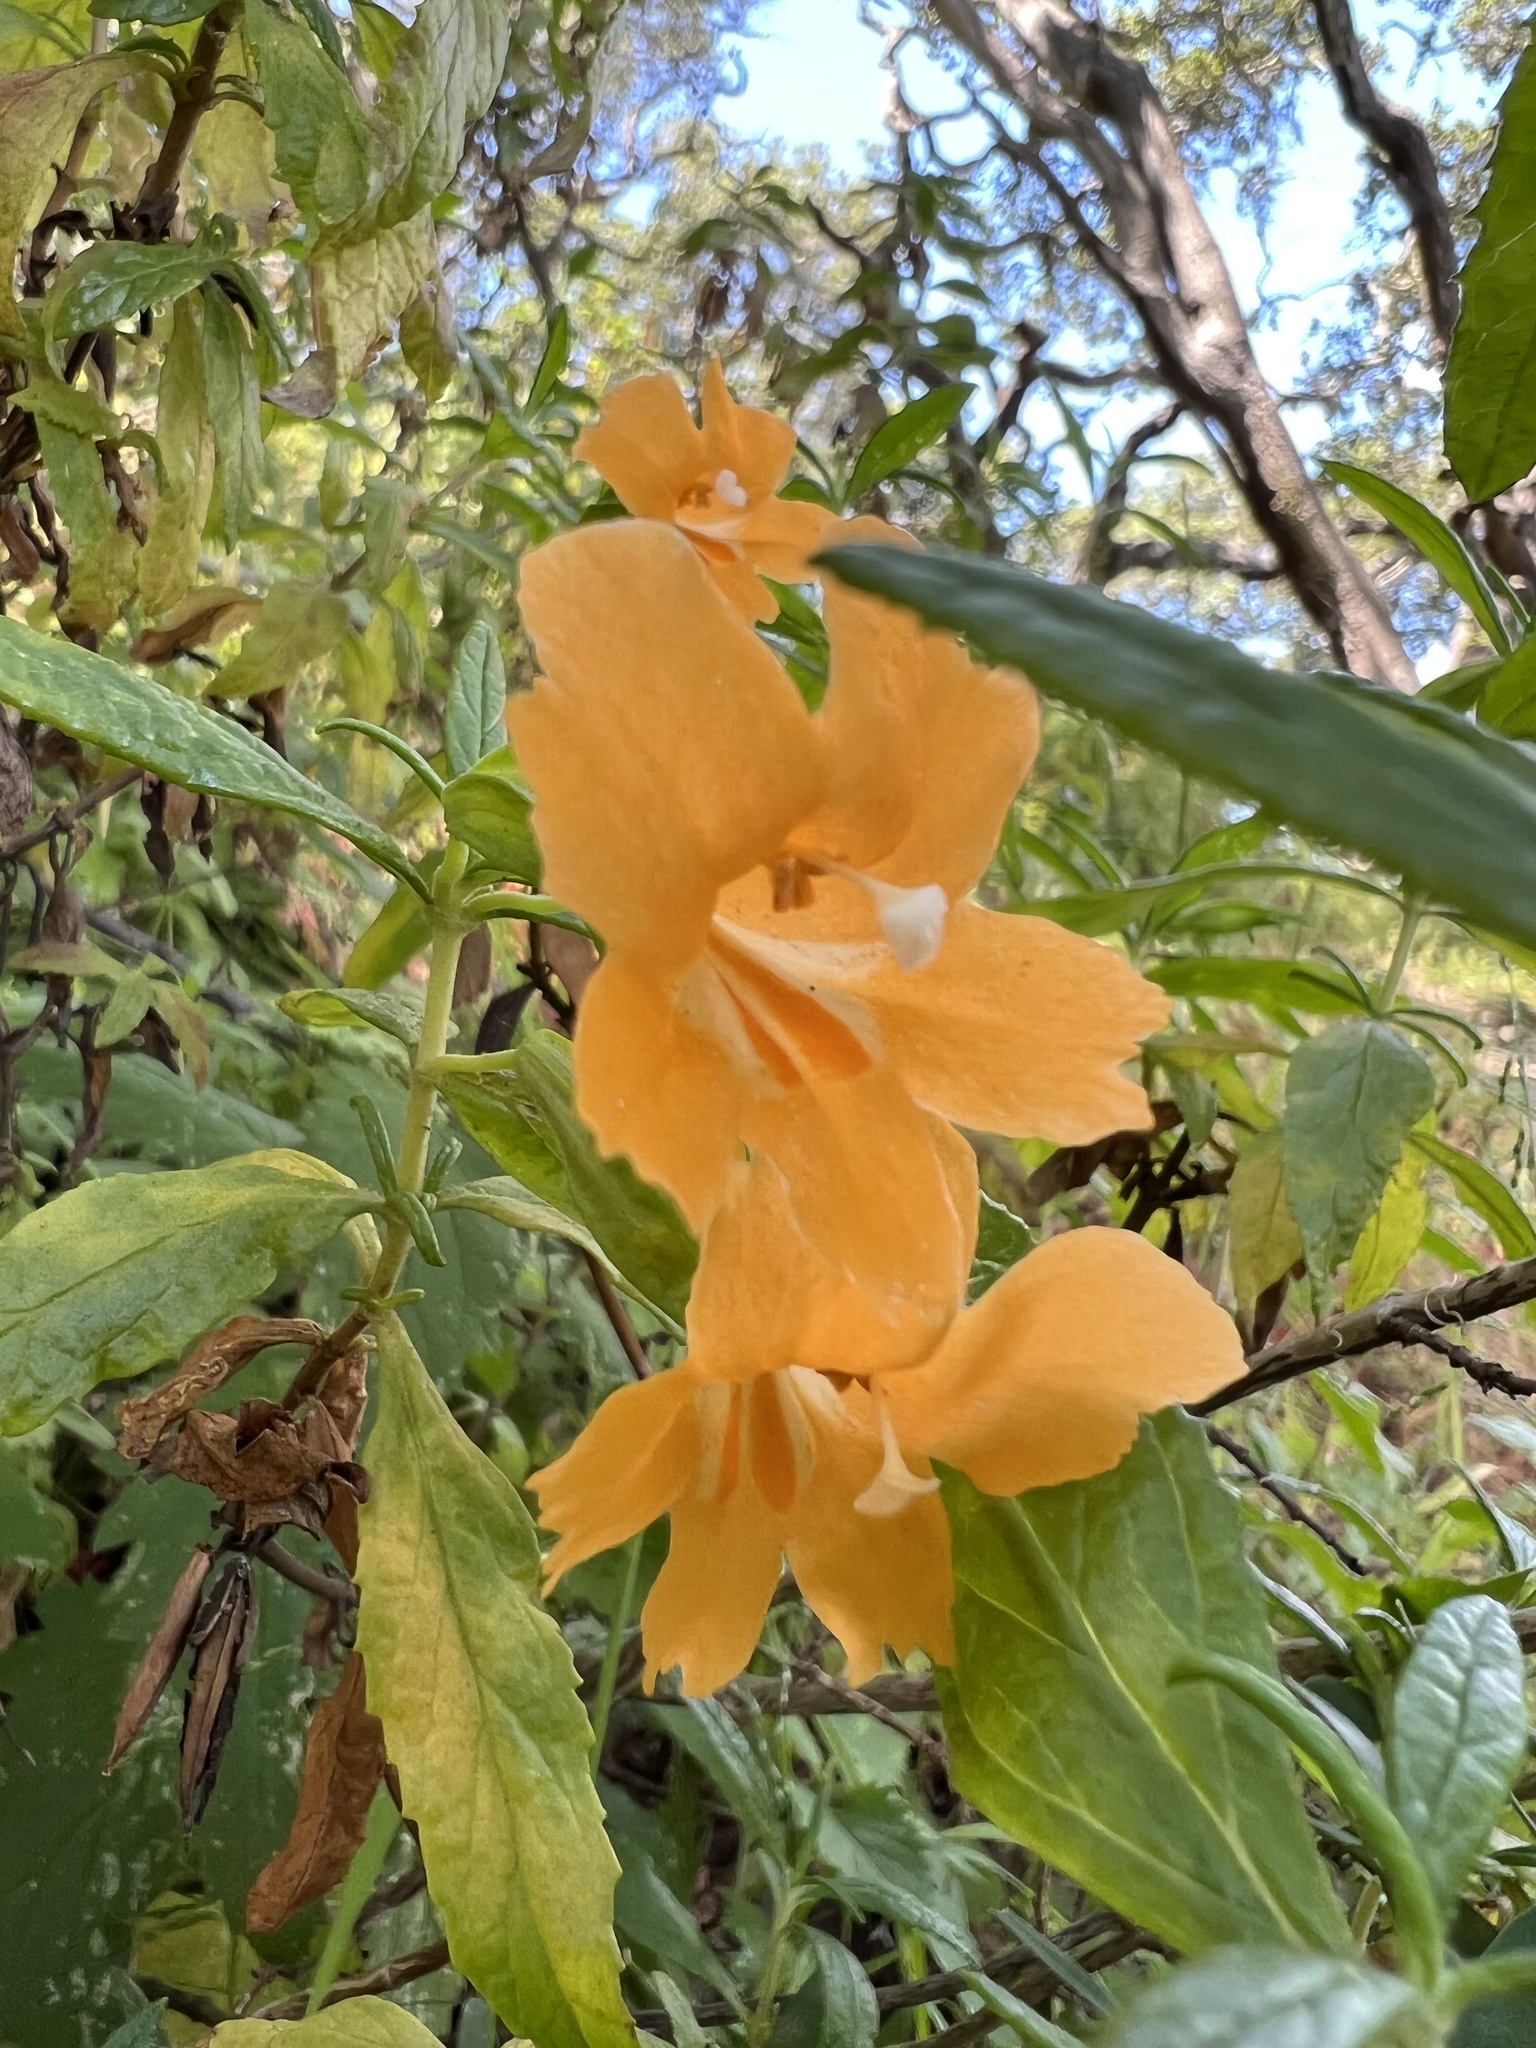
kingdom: Plantae
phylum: Tracheophyta
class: Magnoliopsida
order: Lamiales
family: Phrymaceae
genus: Diplacus
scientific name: Diplacus aurantiacus
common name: Bush monkey-flower
